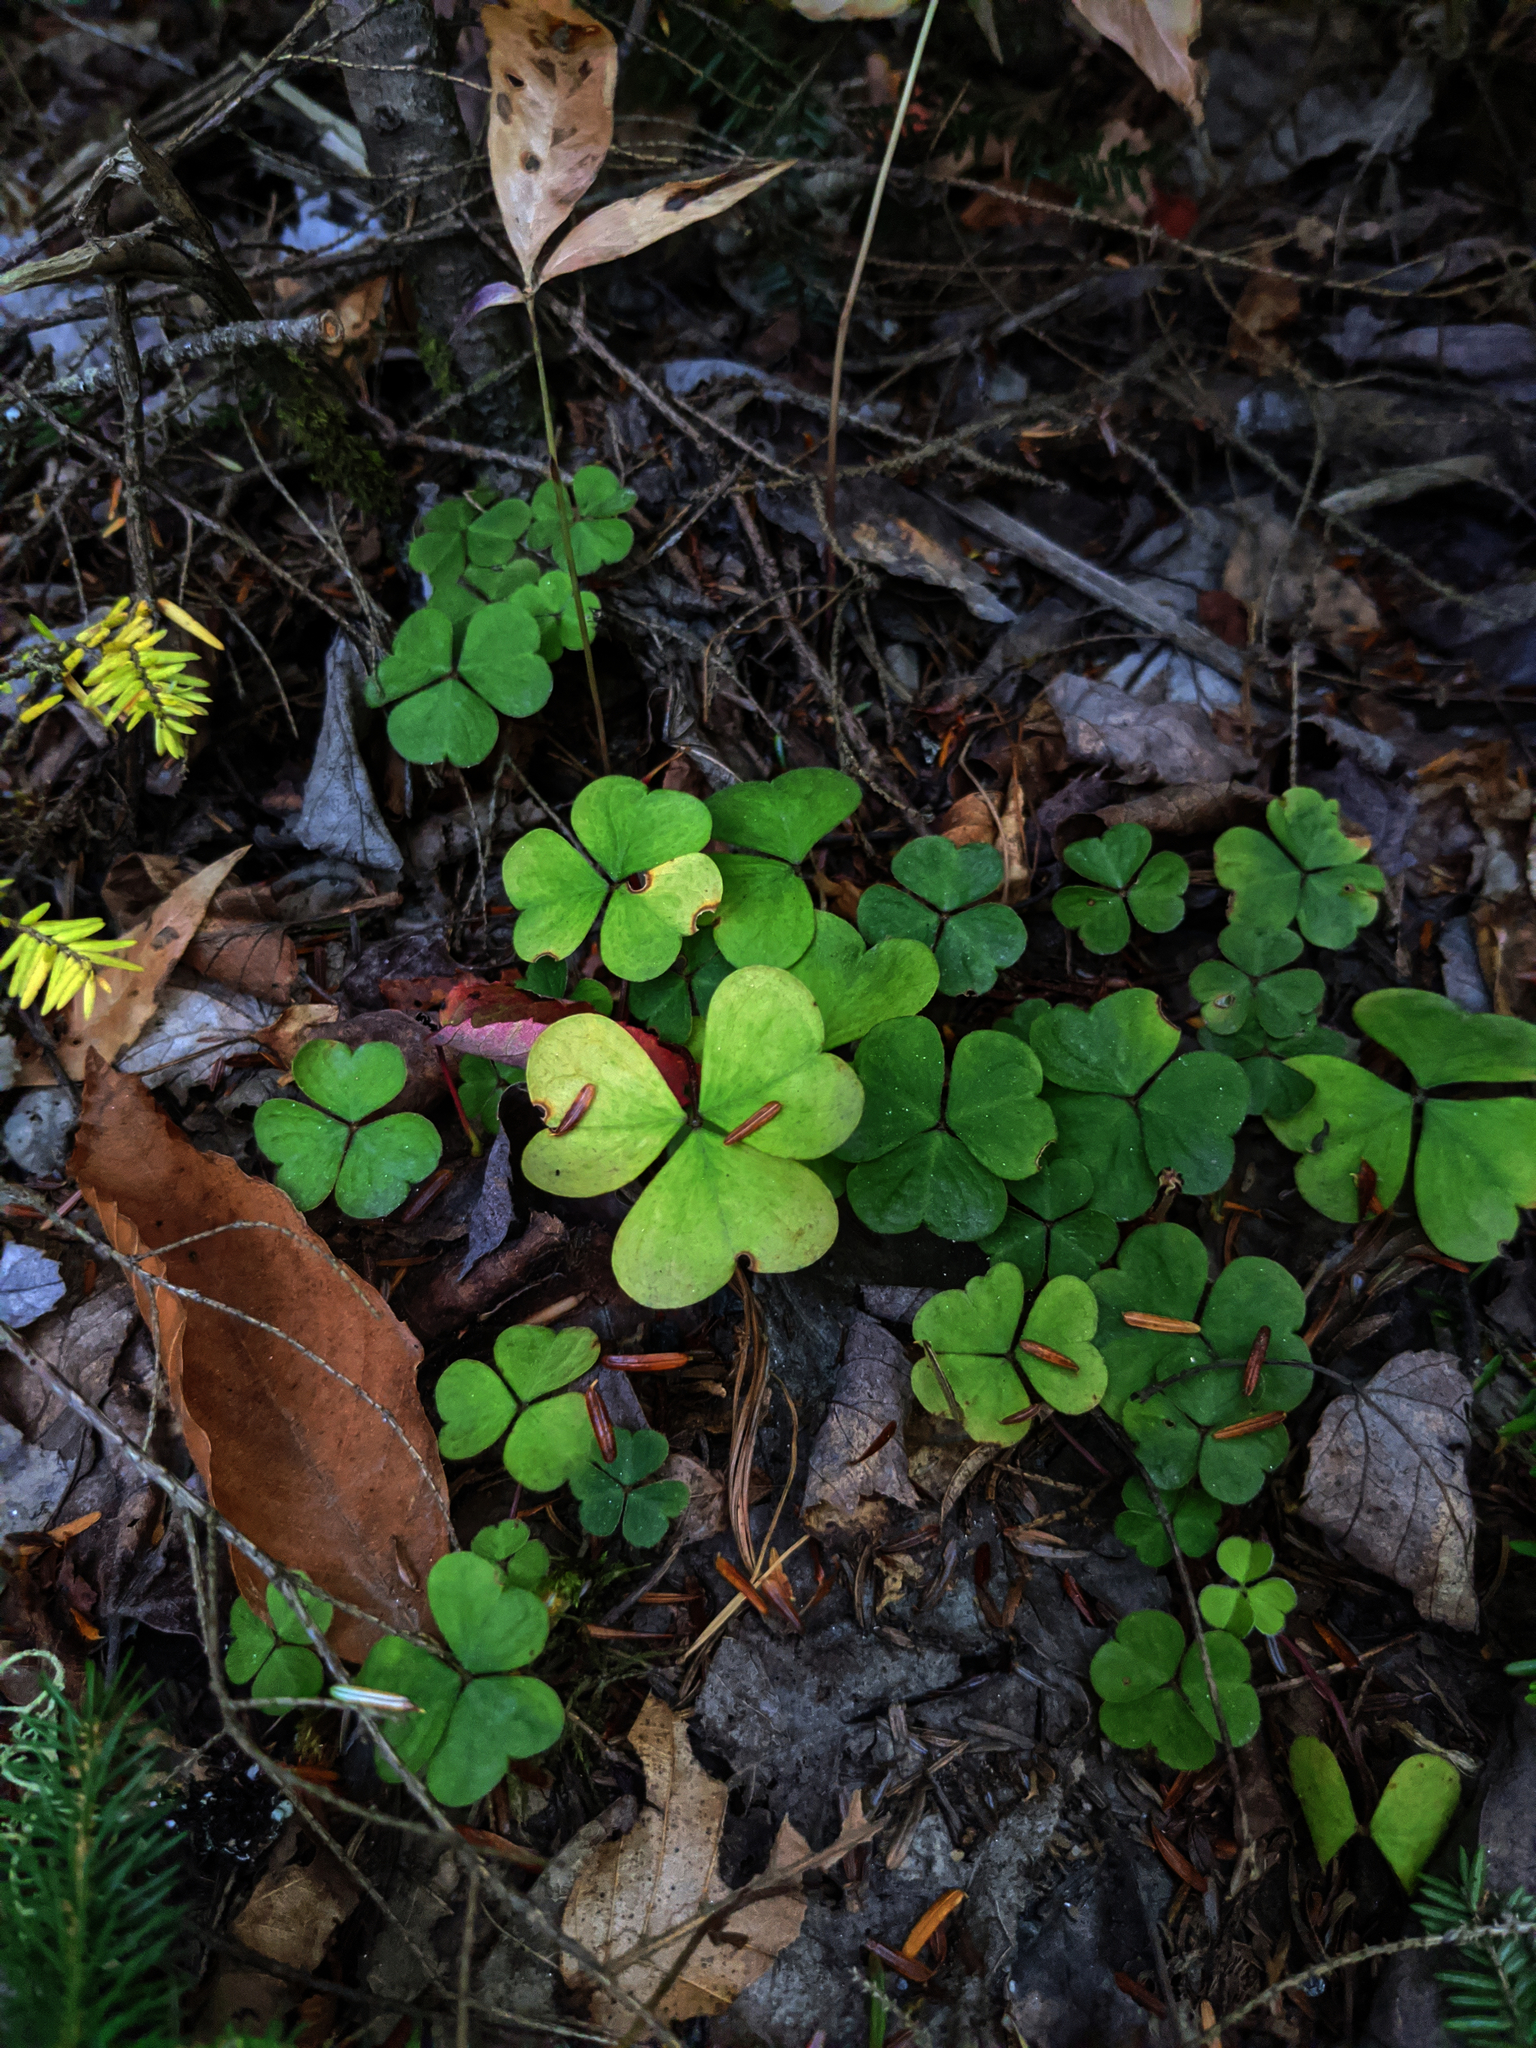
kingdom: Plantae
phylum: Tracheophyta
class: Magnoliopsida
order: Oxalidales
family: Oxalidaceae
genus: Oxalis
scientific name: Oxalis montana
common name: American wood-sorrel
